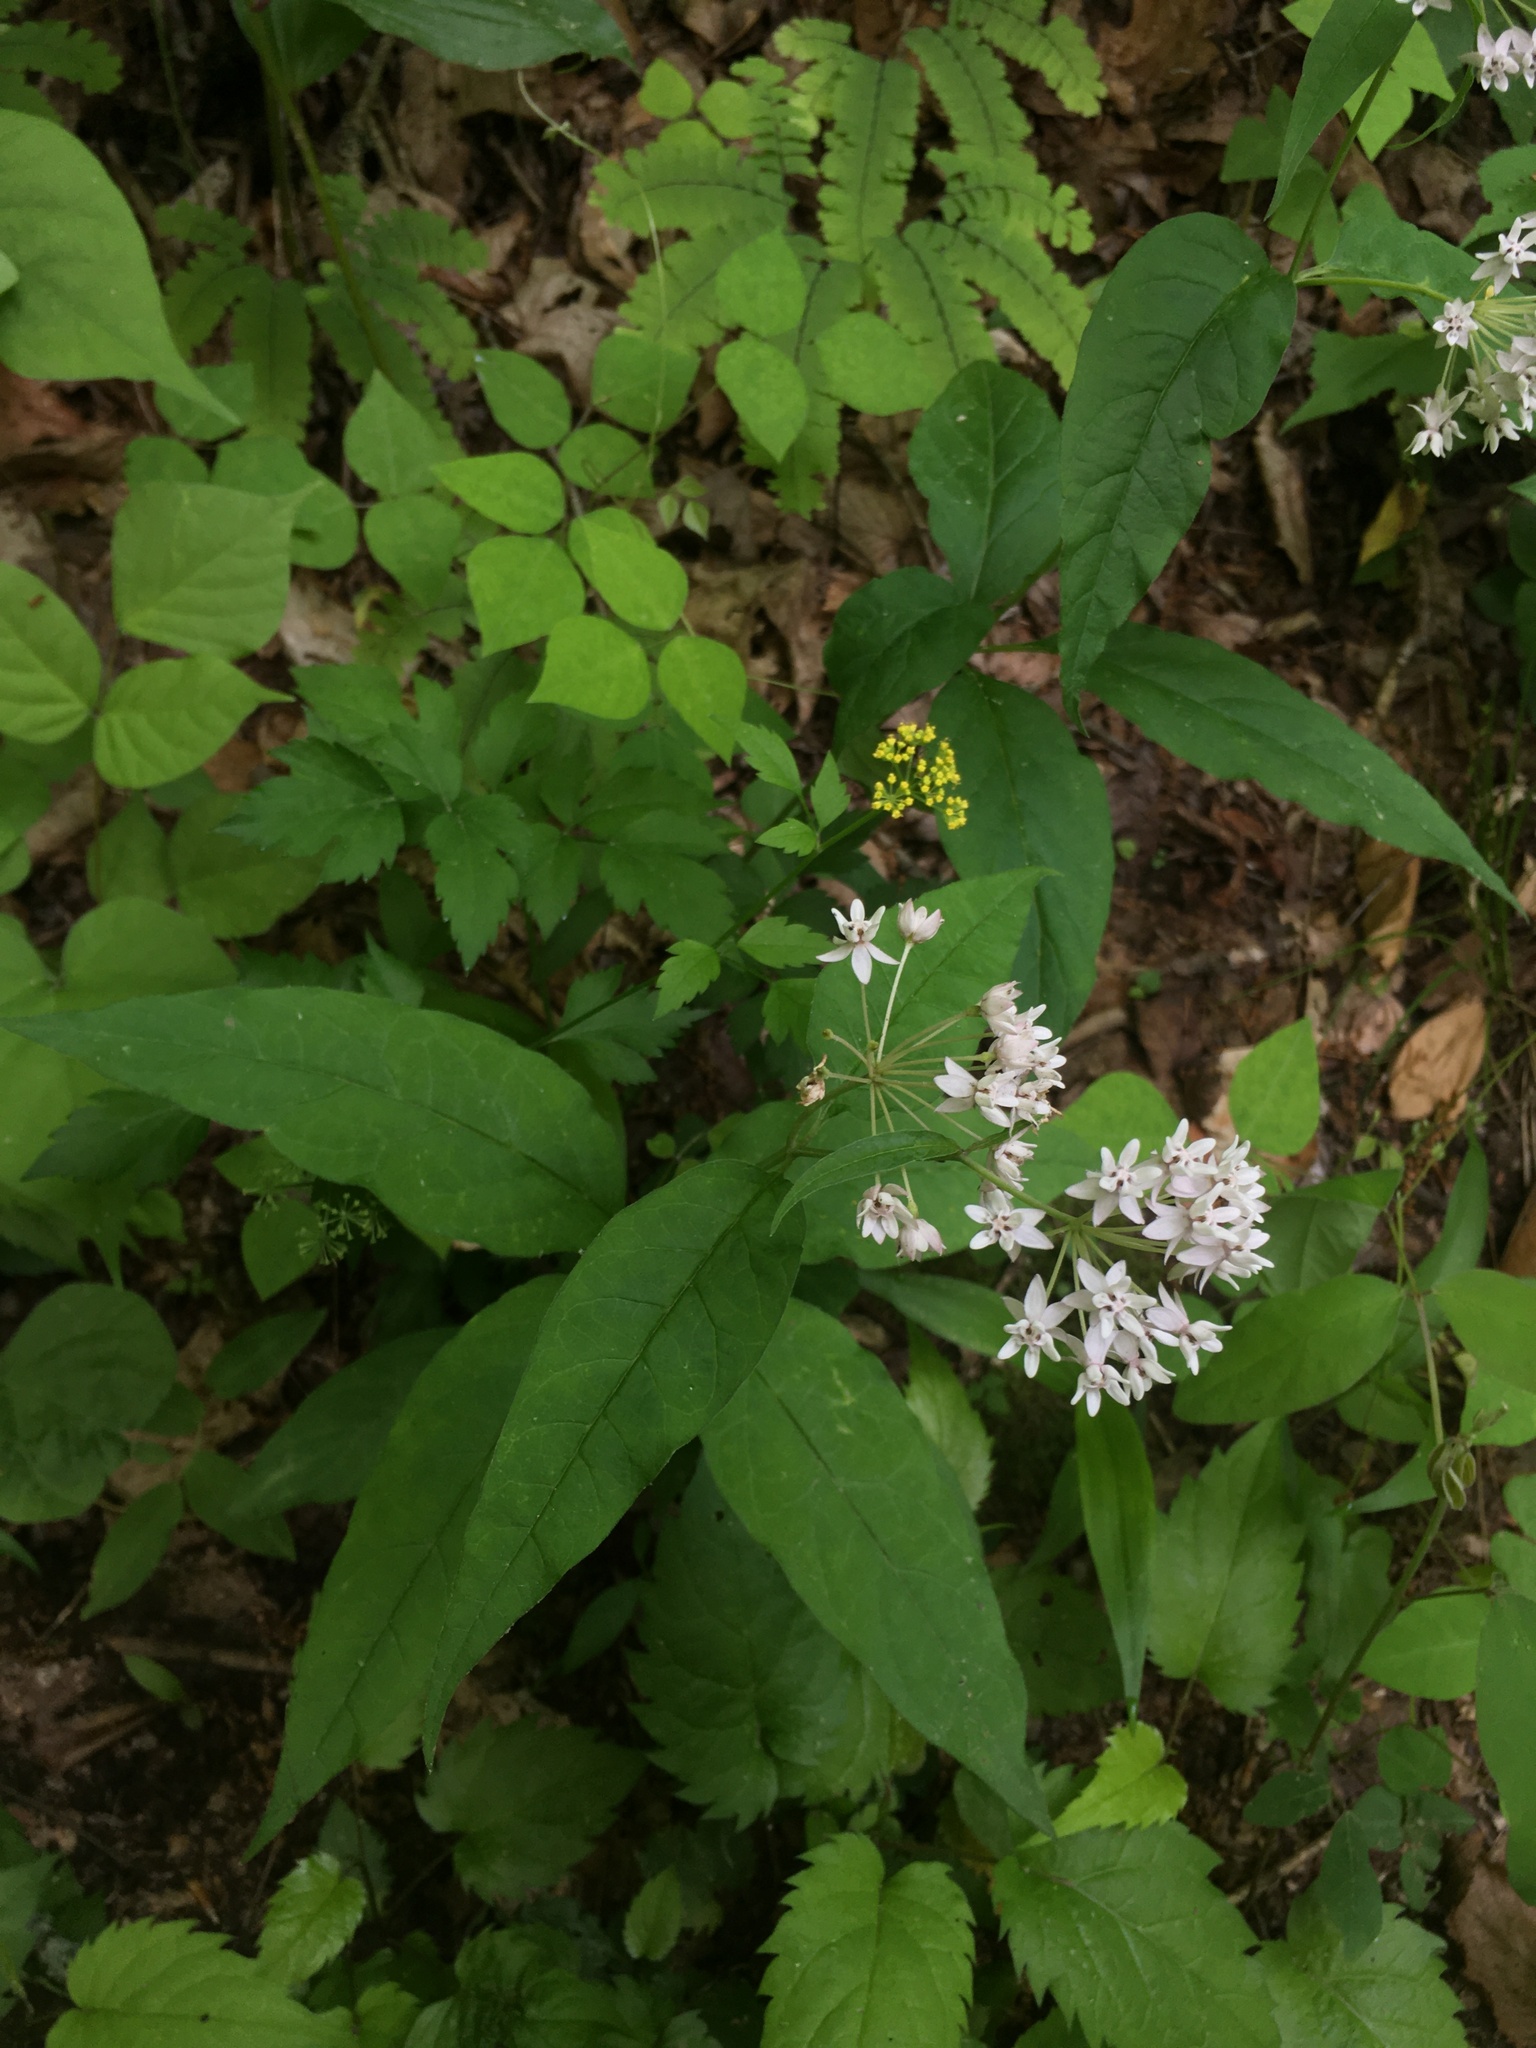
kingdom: Plantae
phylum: Tracheophyta
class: Magnoliopsida
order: Gentianales
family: Apocynaceae
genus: Asclepias
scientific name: Asclepias quadrifolia
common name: Whorled milkweed
